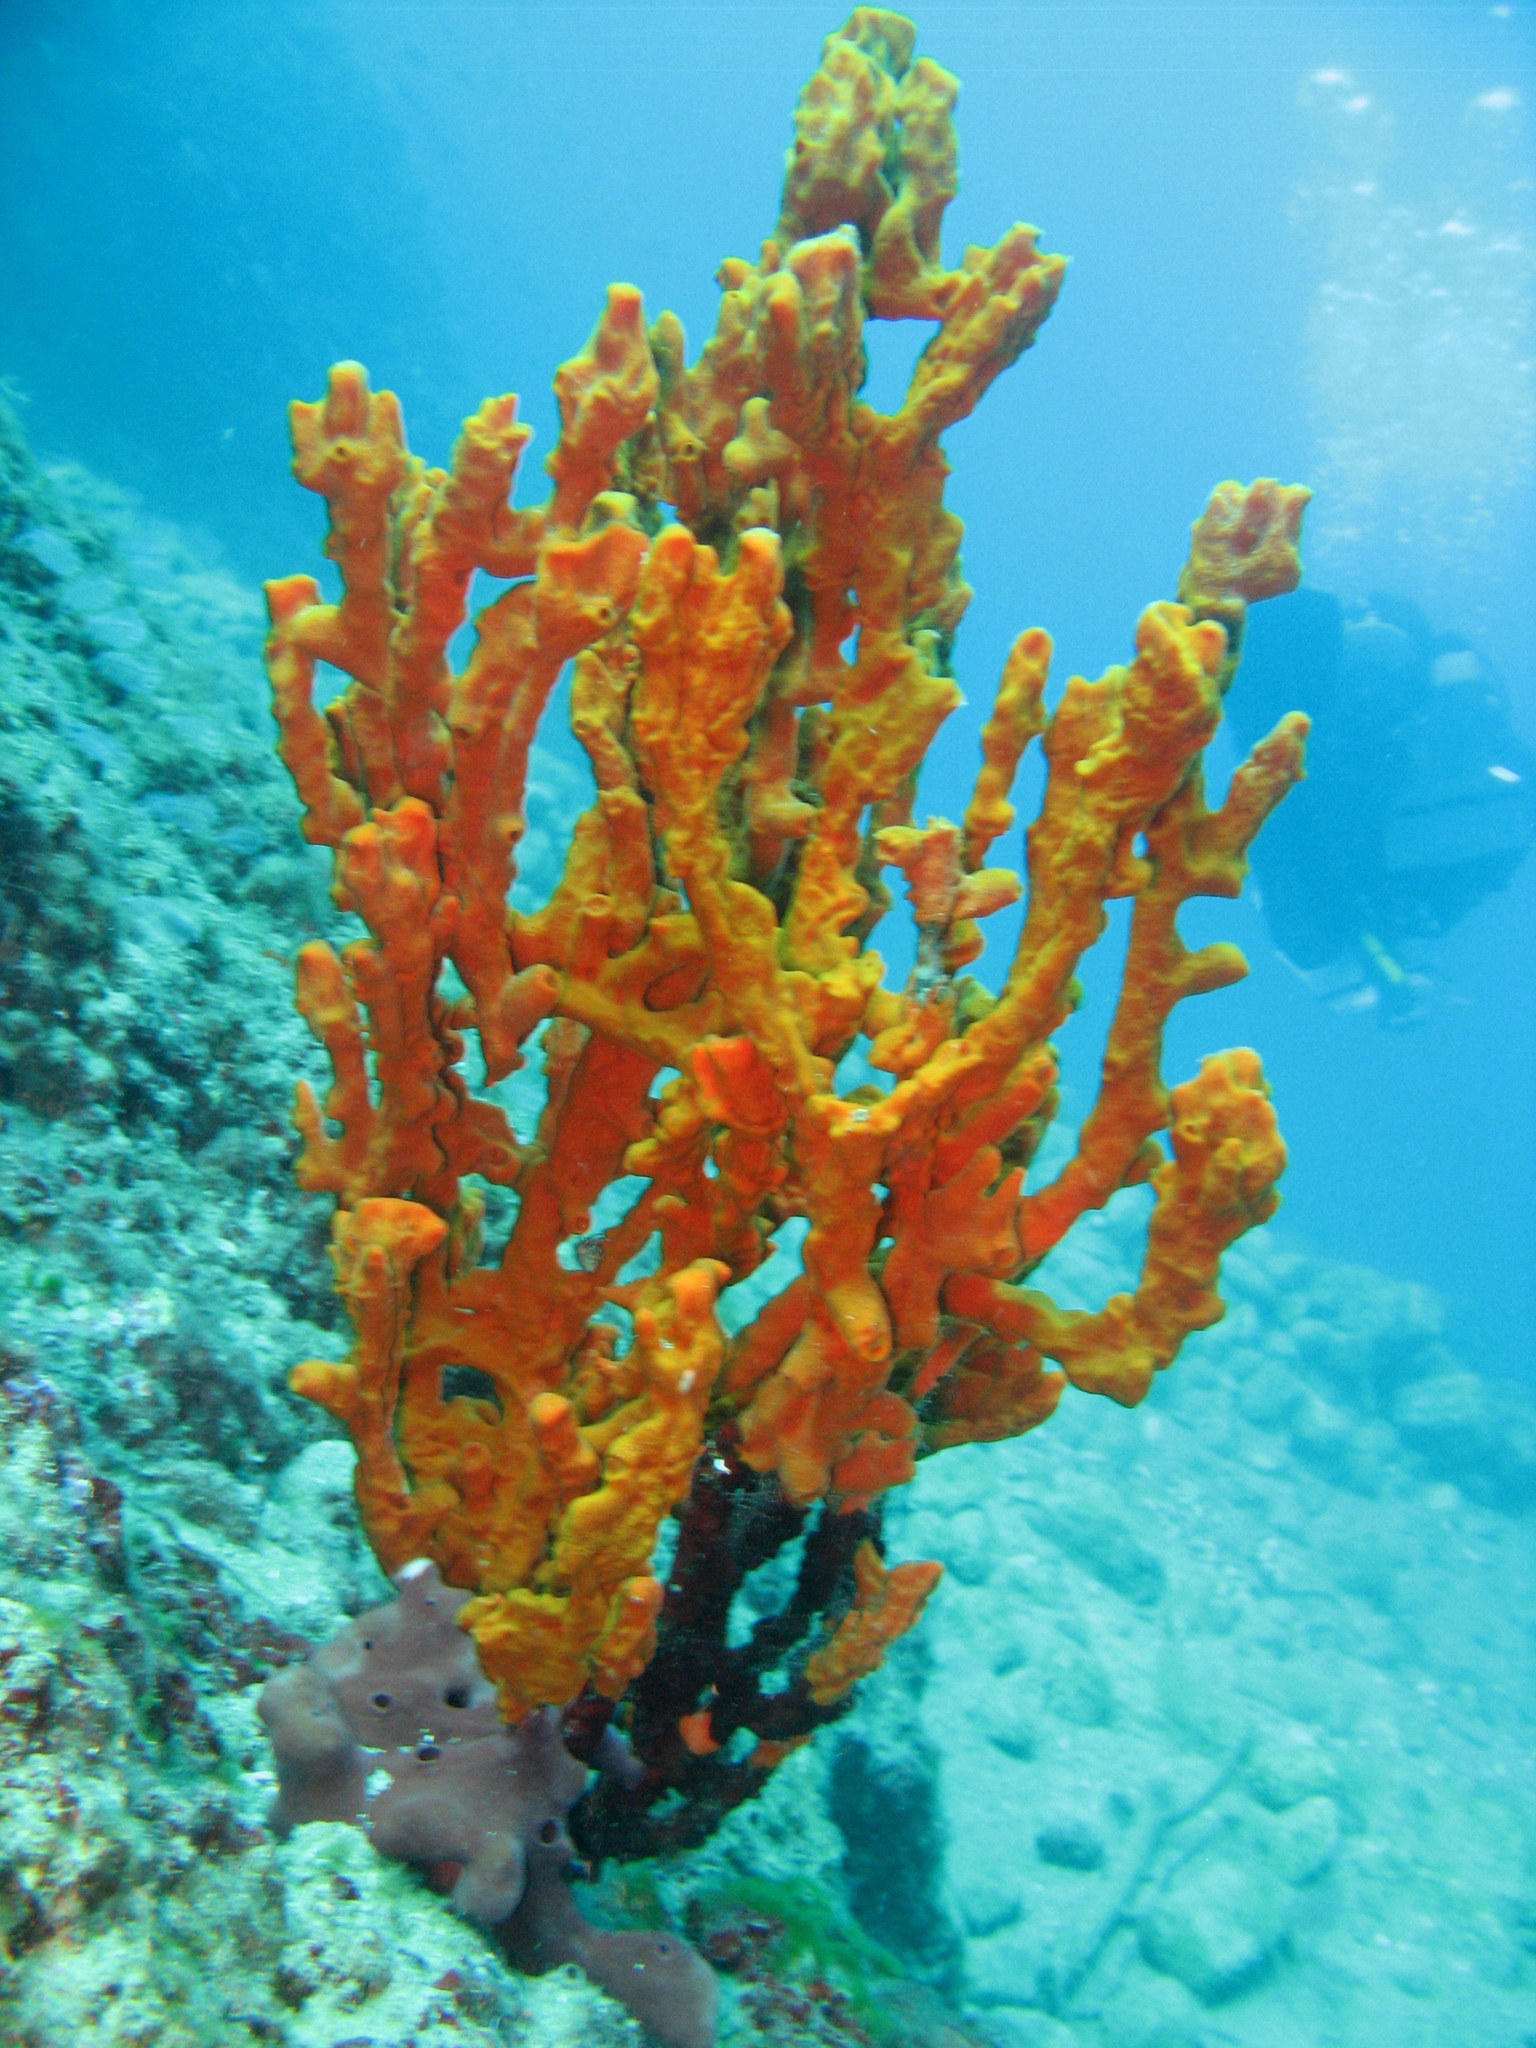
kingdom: Animalia
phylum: Porifera
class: Demospongiae
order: Axinellida
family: Axinellidae
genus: Axinella
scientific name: Axinella cannabina
